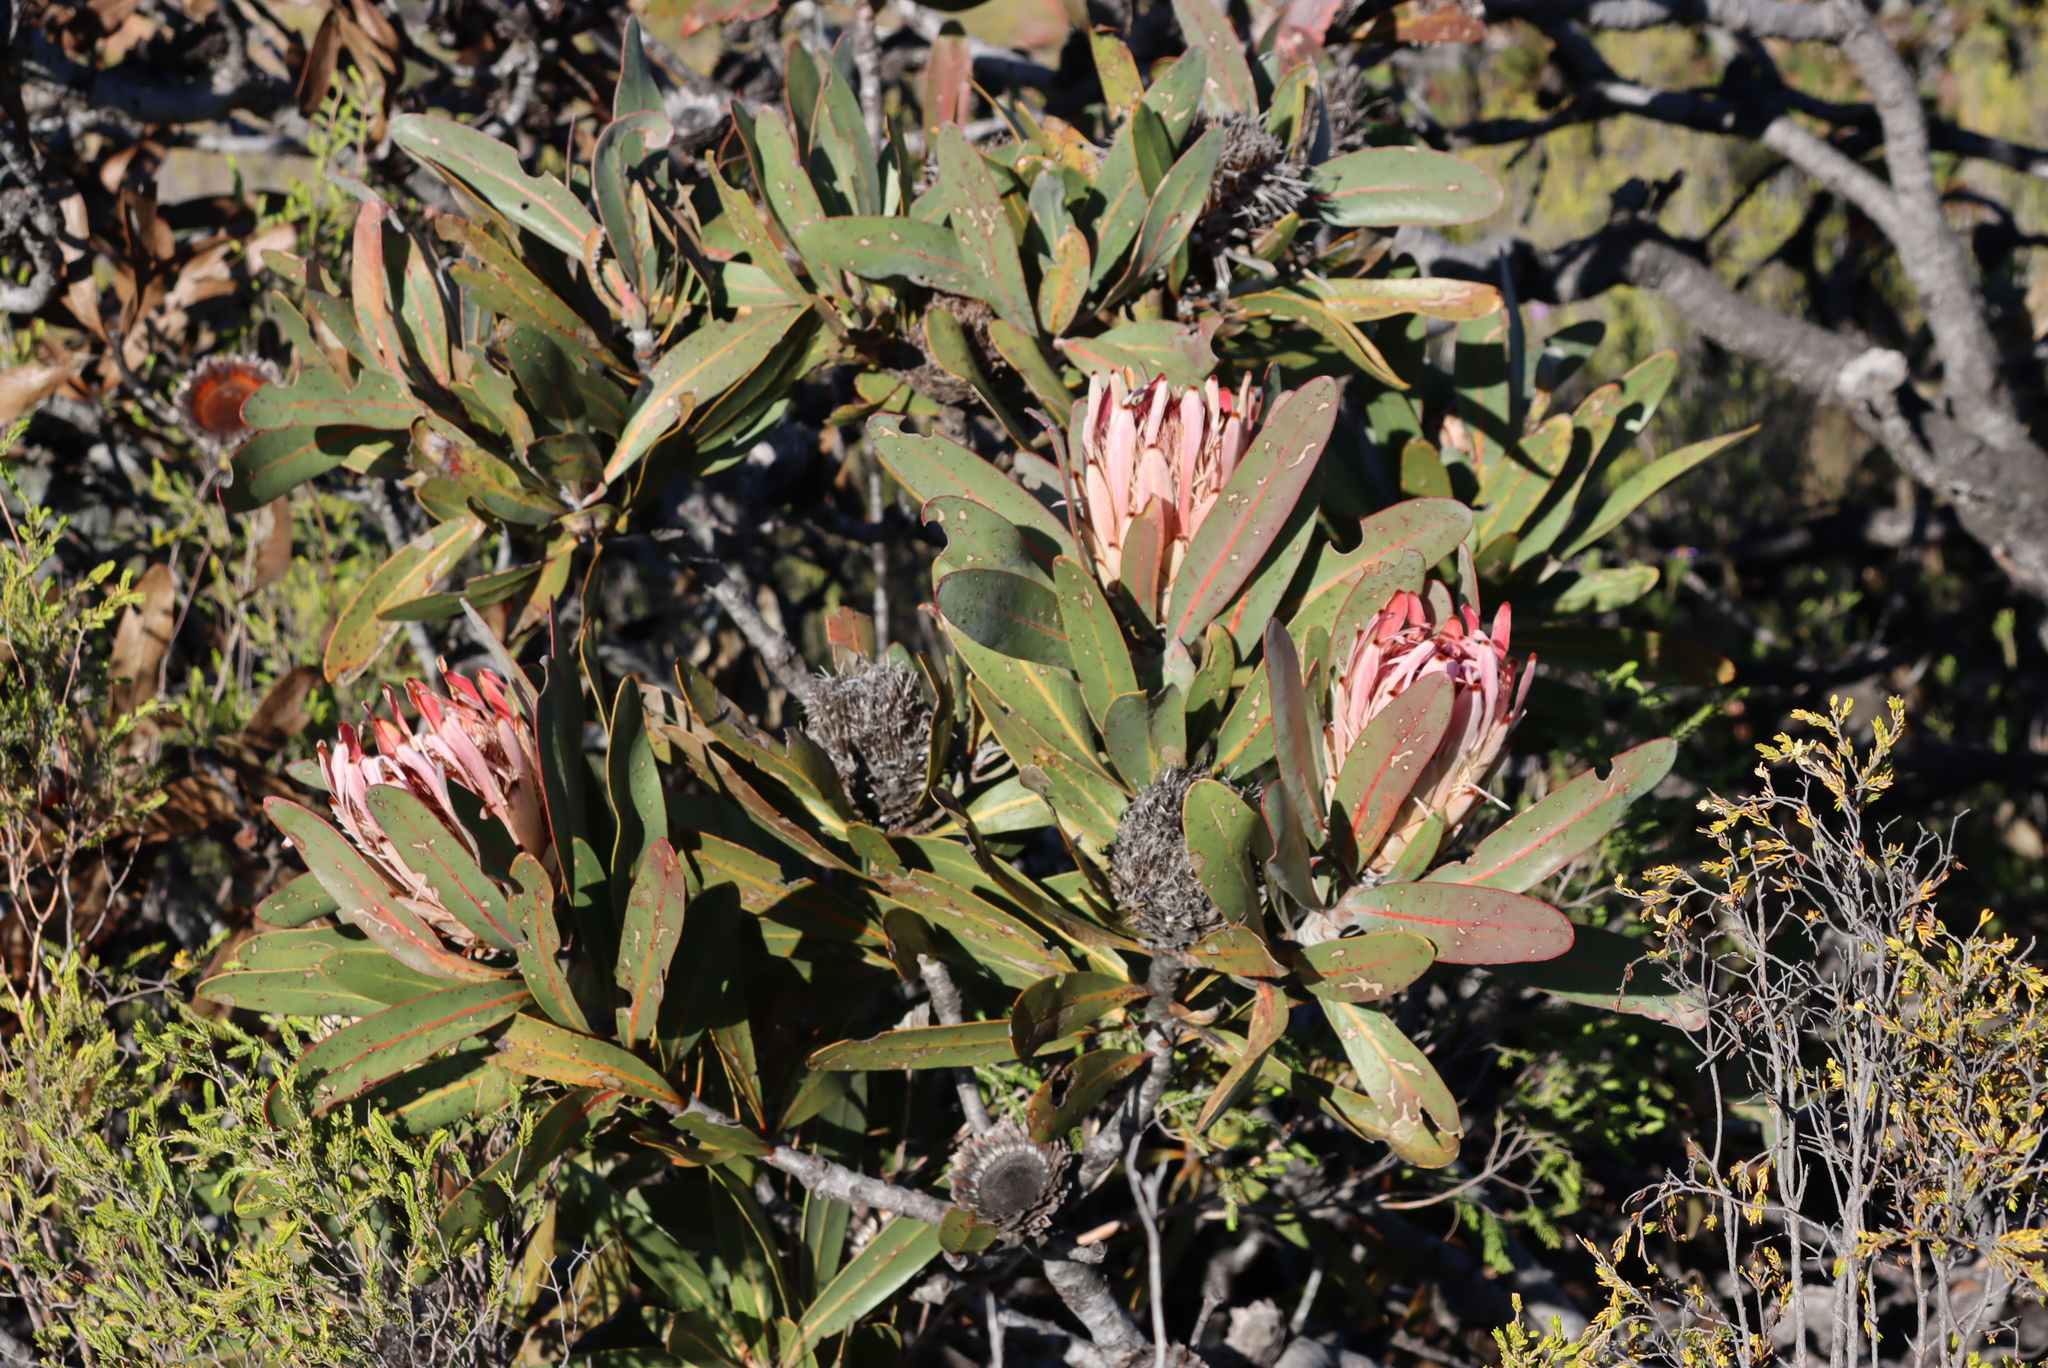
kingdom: Plantae
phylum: Tracheophyta
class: Magnoliopsida
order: Proteales
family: Proteaceae
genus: Protea
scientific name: Protea lorifolia
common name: Strap-leaved protea
